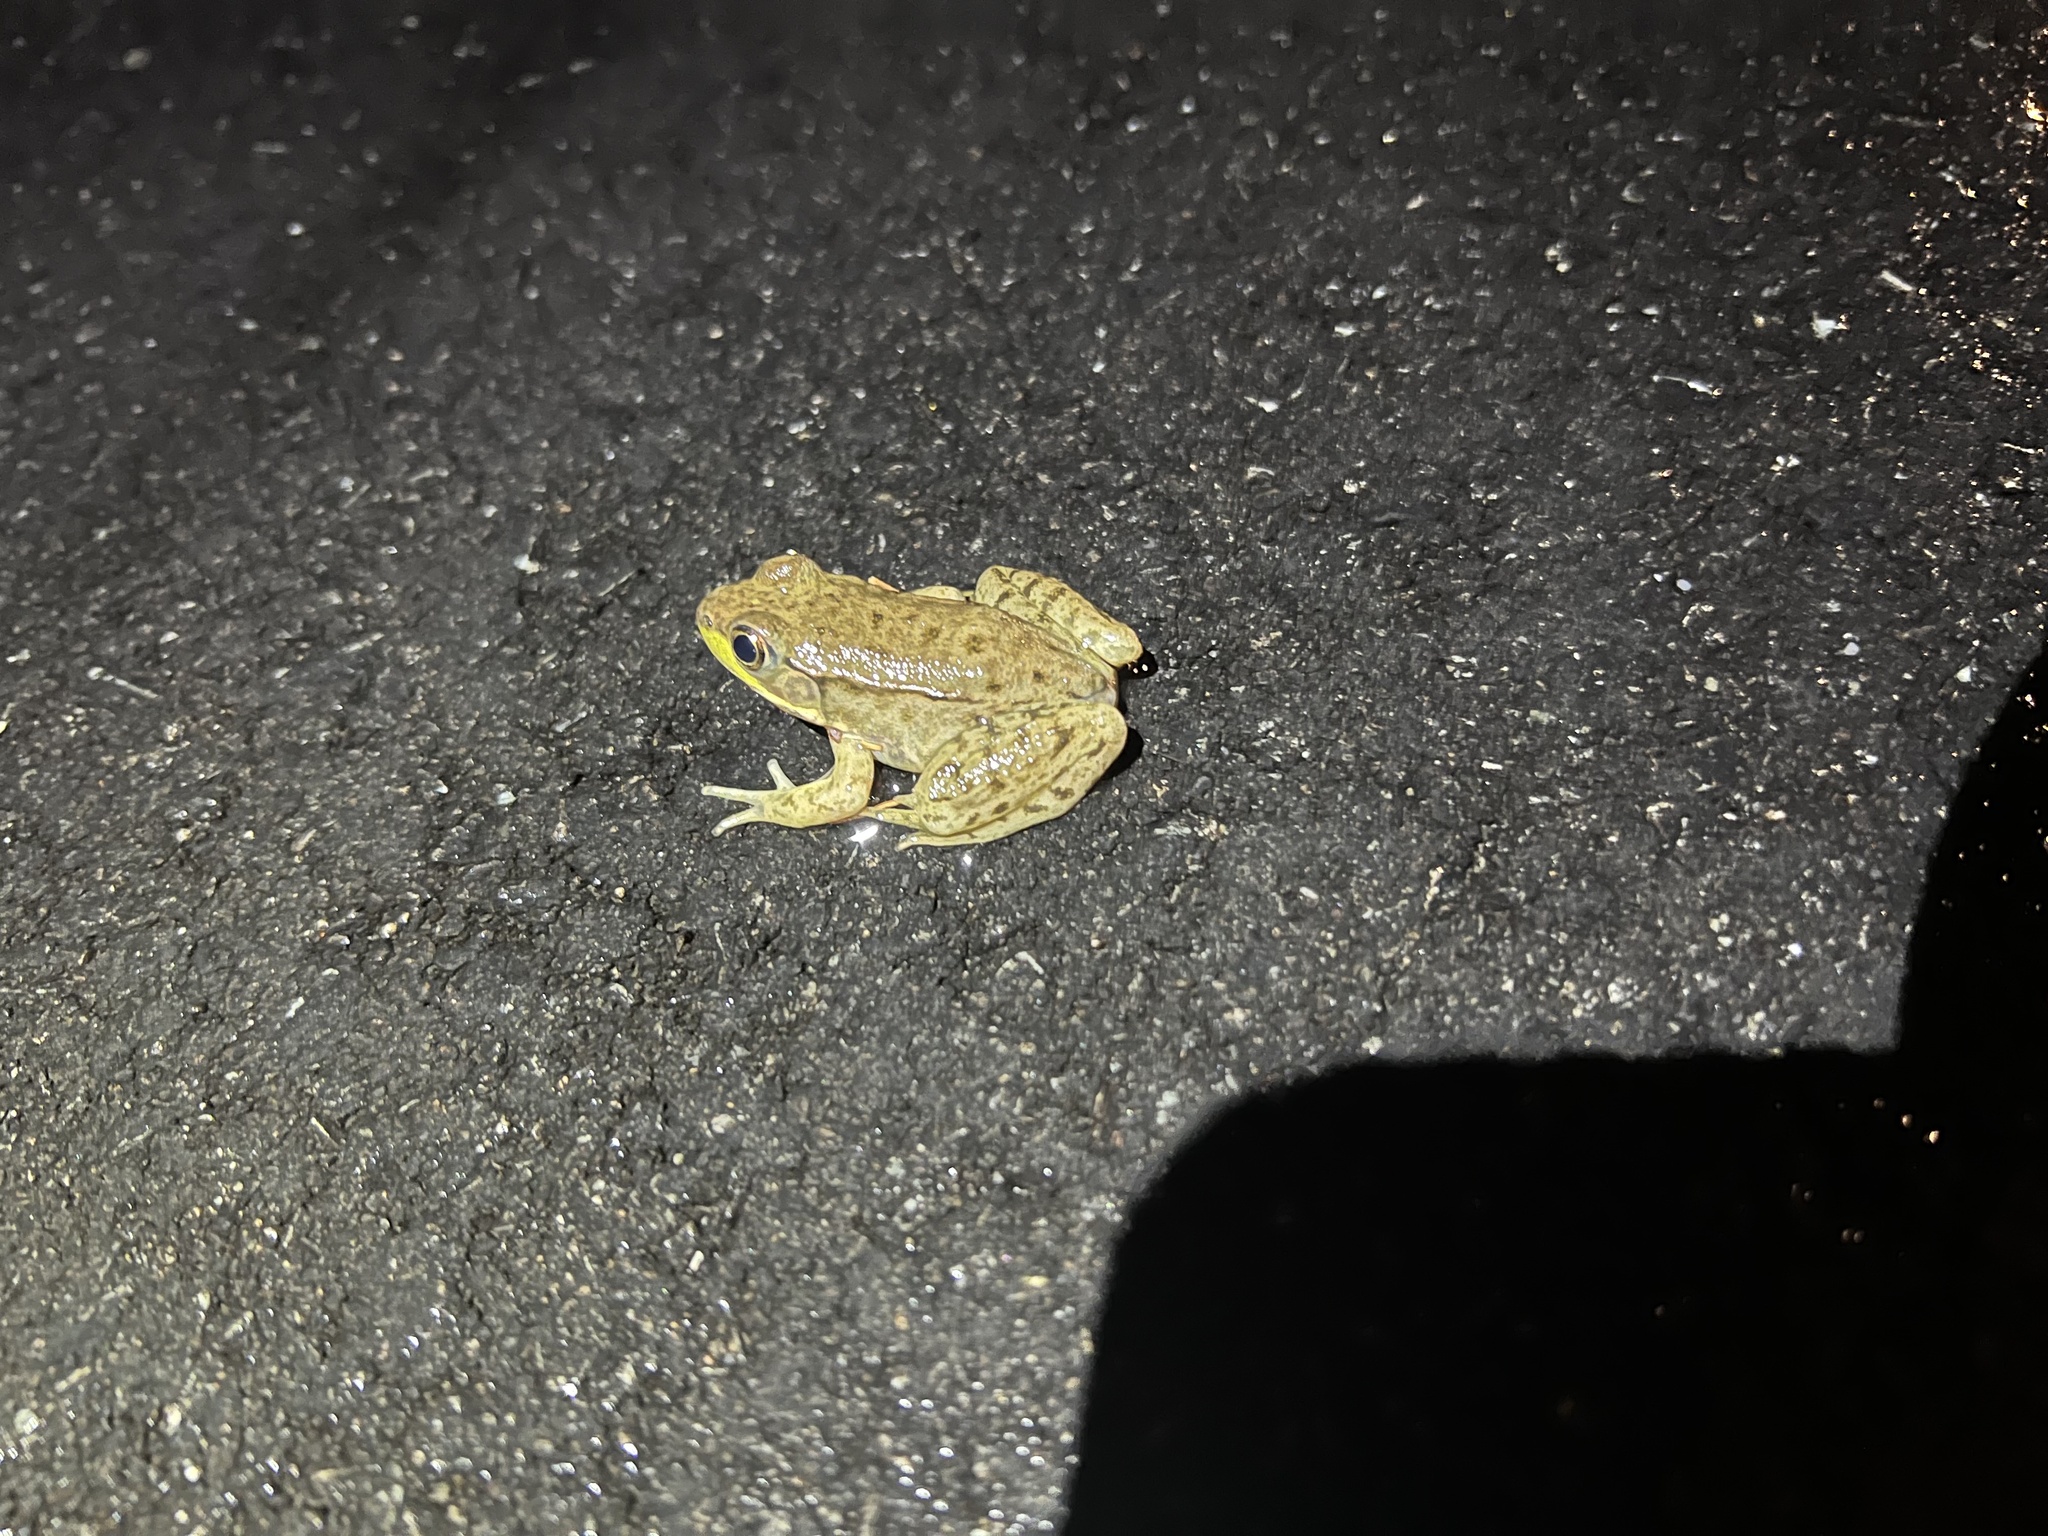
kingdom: Animalia
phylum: Chordata
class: Amphibia
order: Anura
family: Ranidae
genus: Lithobates
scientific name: Lithobates clamitans
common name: Green frog
